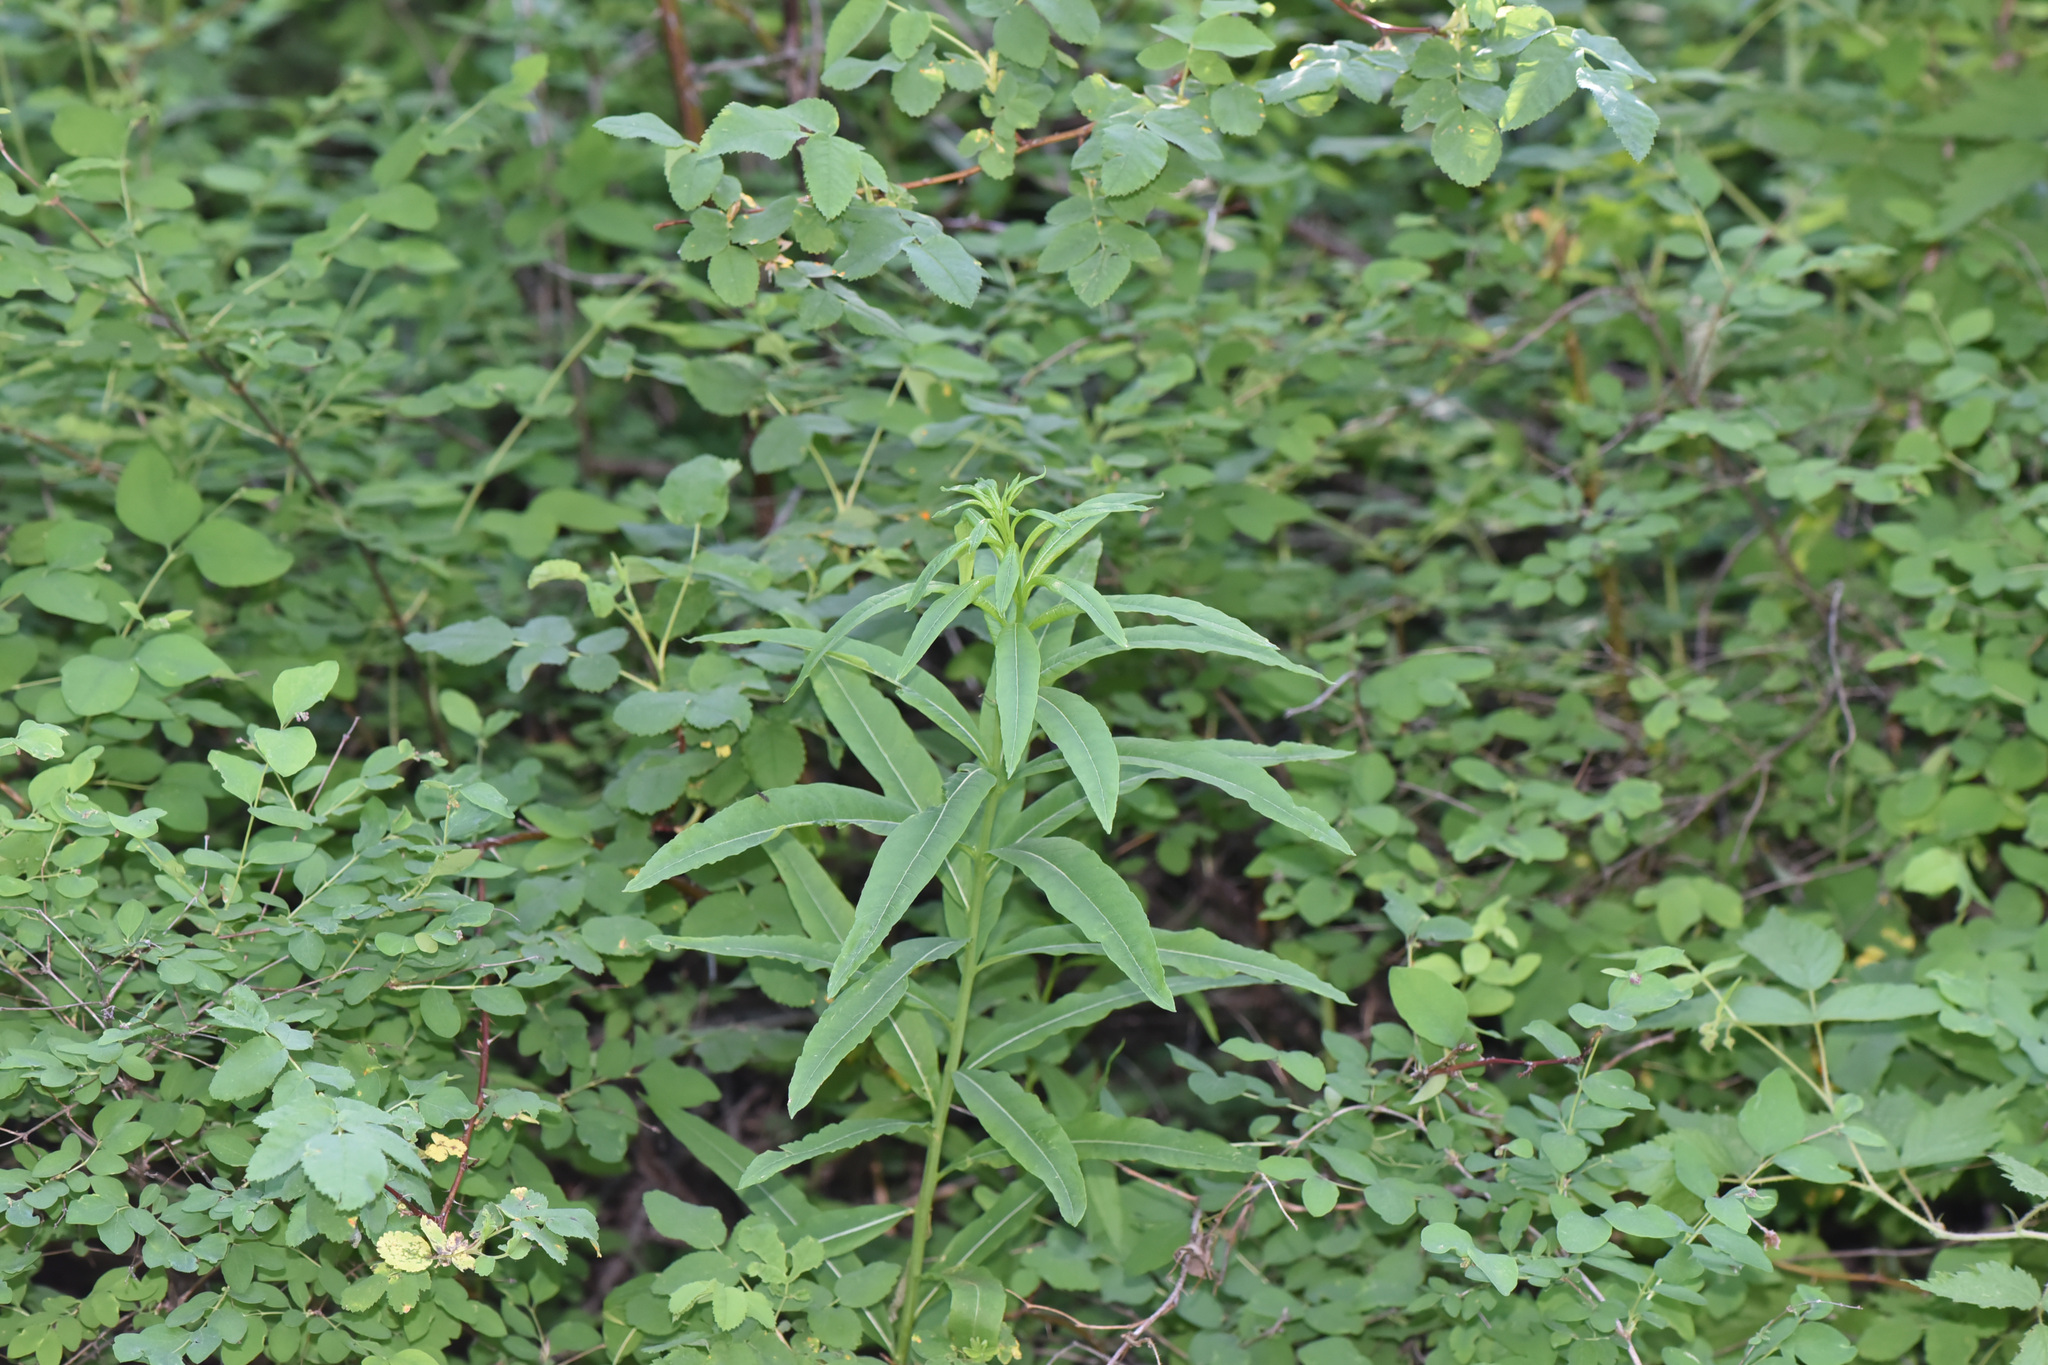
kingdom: Plantae
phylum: Tracheophyta
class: Magnoliopsida
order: Myrtales
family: Onagraceae
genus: Chamaenerion
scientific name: Chamaenerion angustifolium
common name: Fireweed
